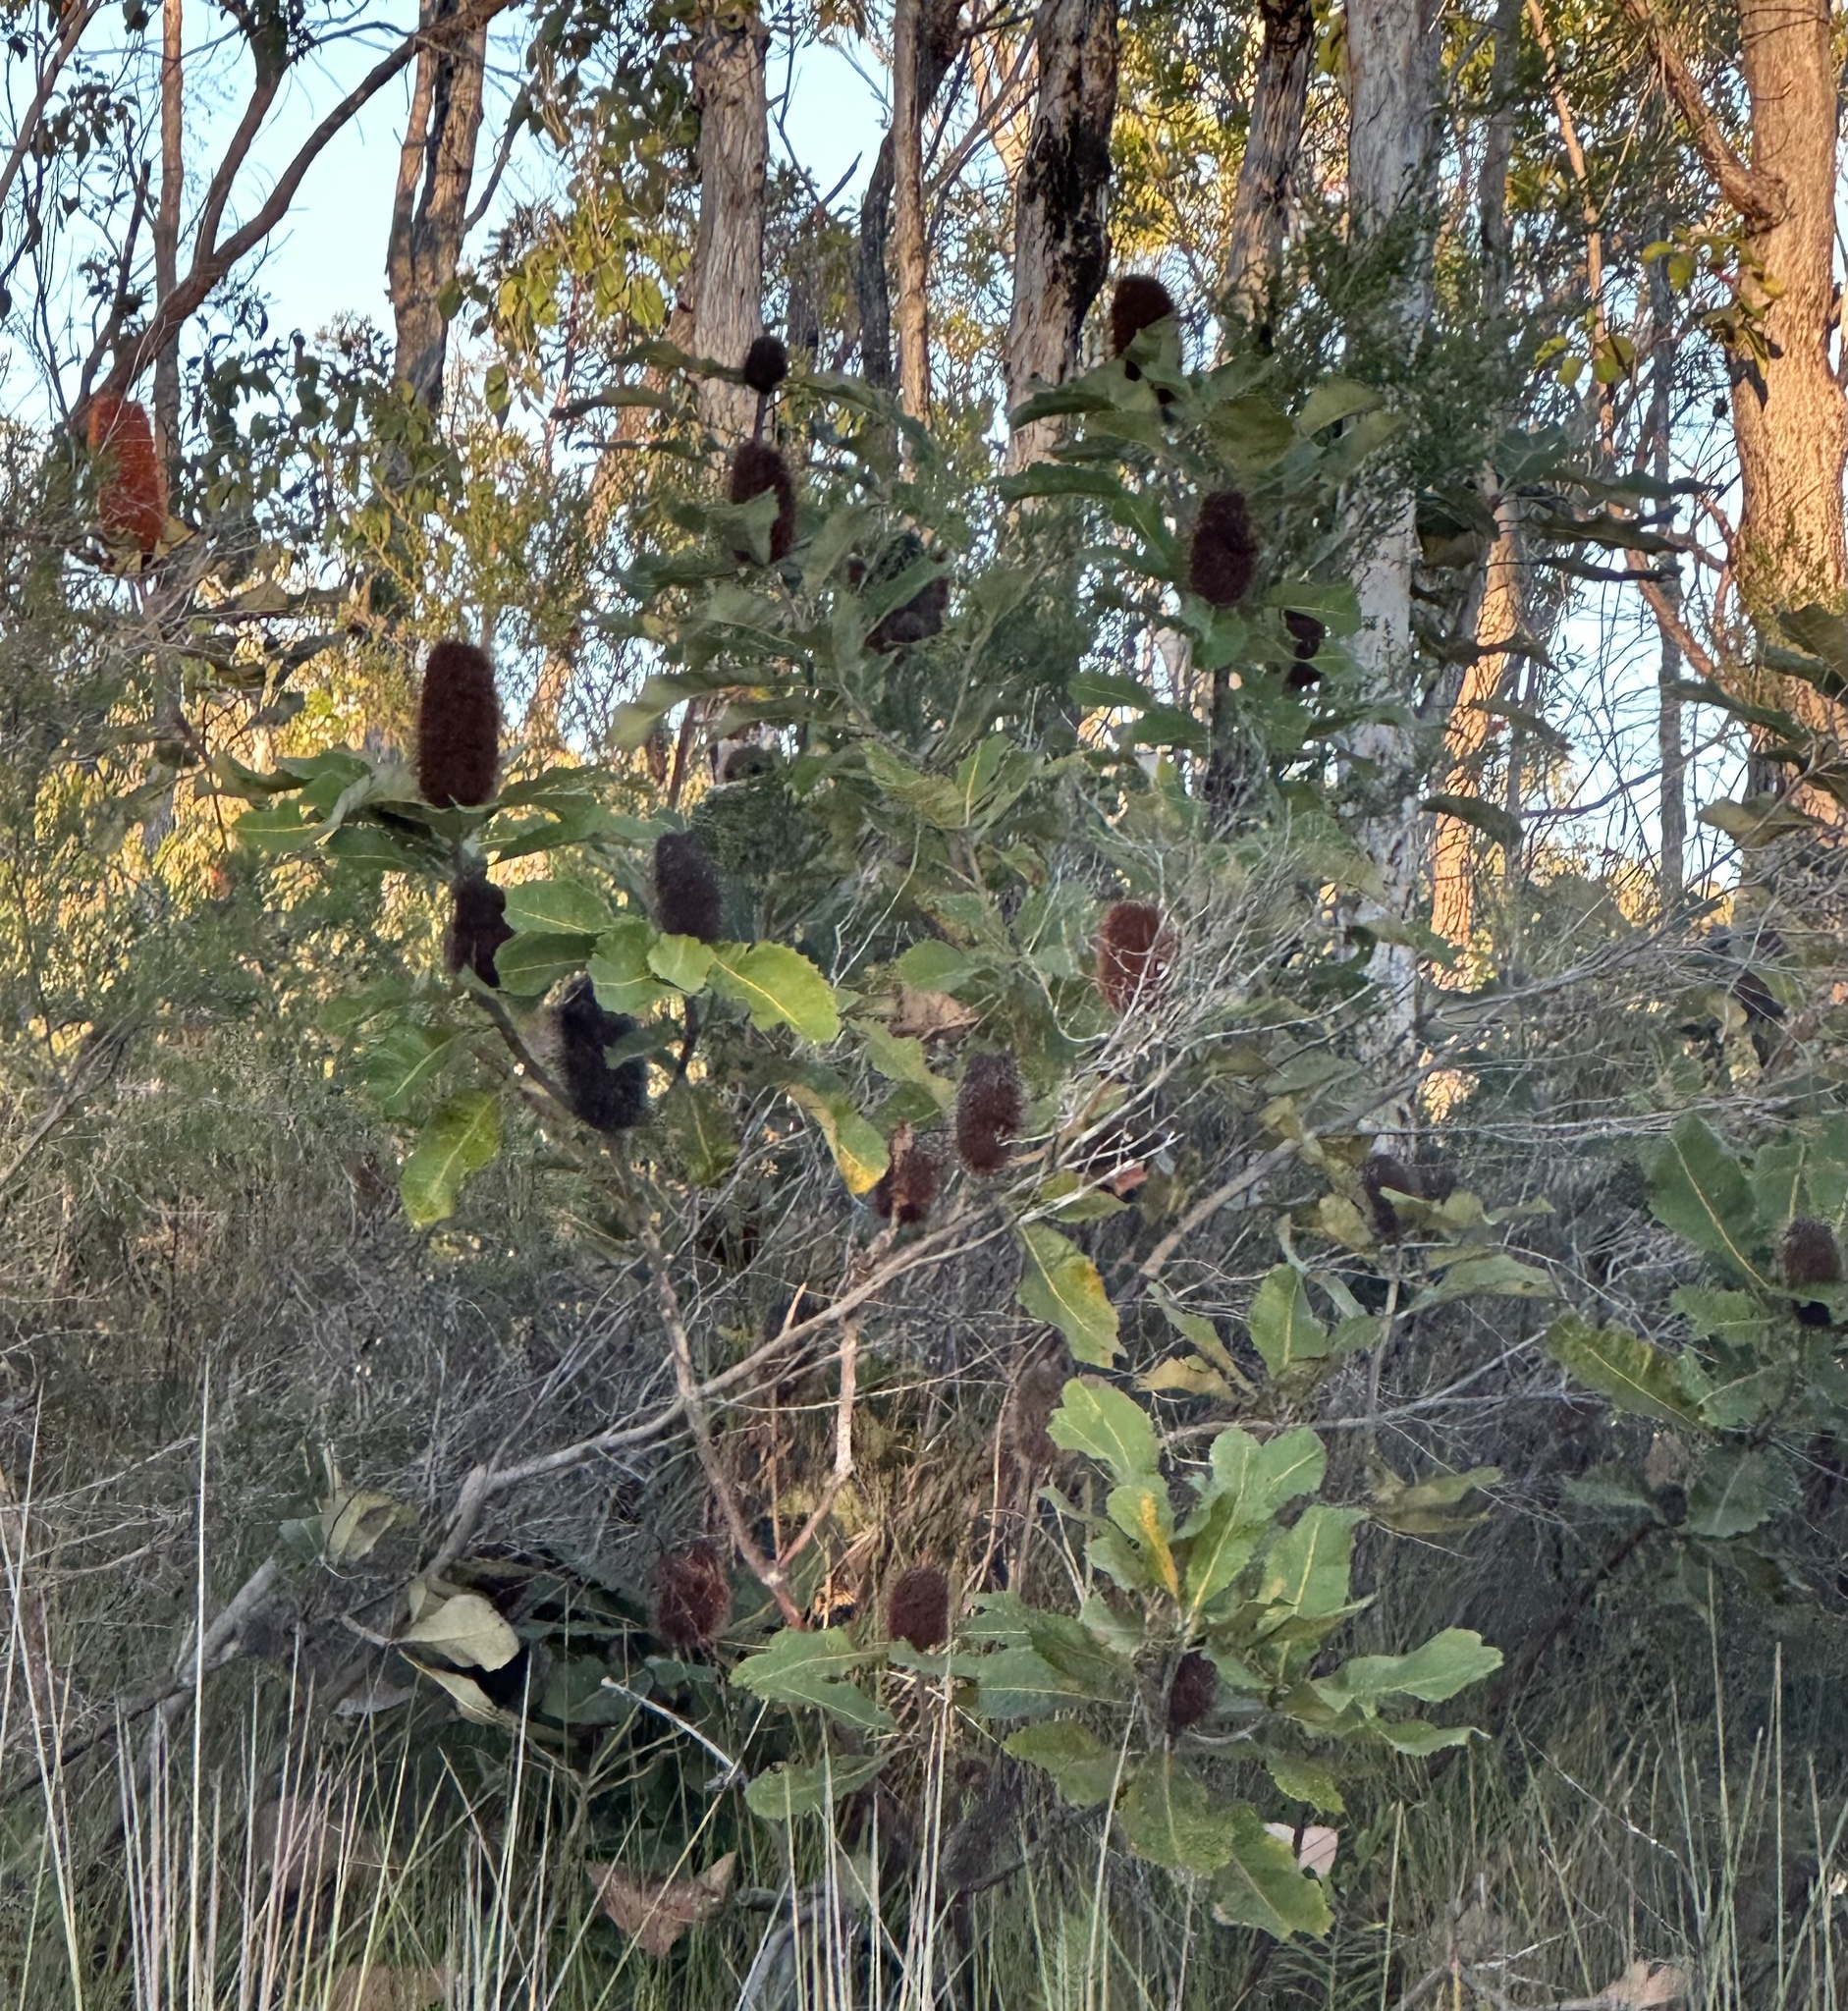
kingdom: Plantae
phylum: Tracheophyta
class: Magnoliopsida
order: Proteales
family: Proteaceae
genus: Banksia
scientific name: Banksia robur
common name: Broadleaf banksia
